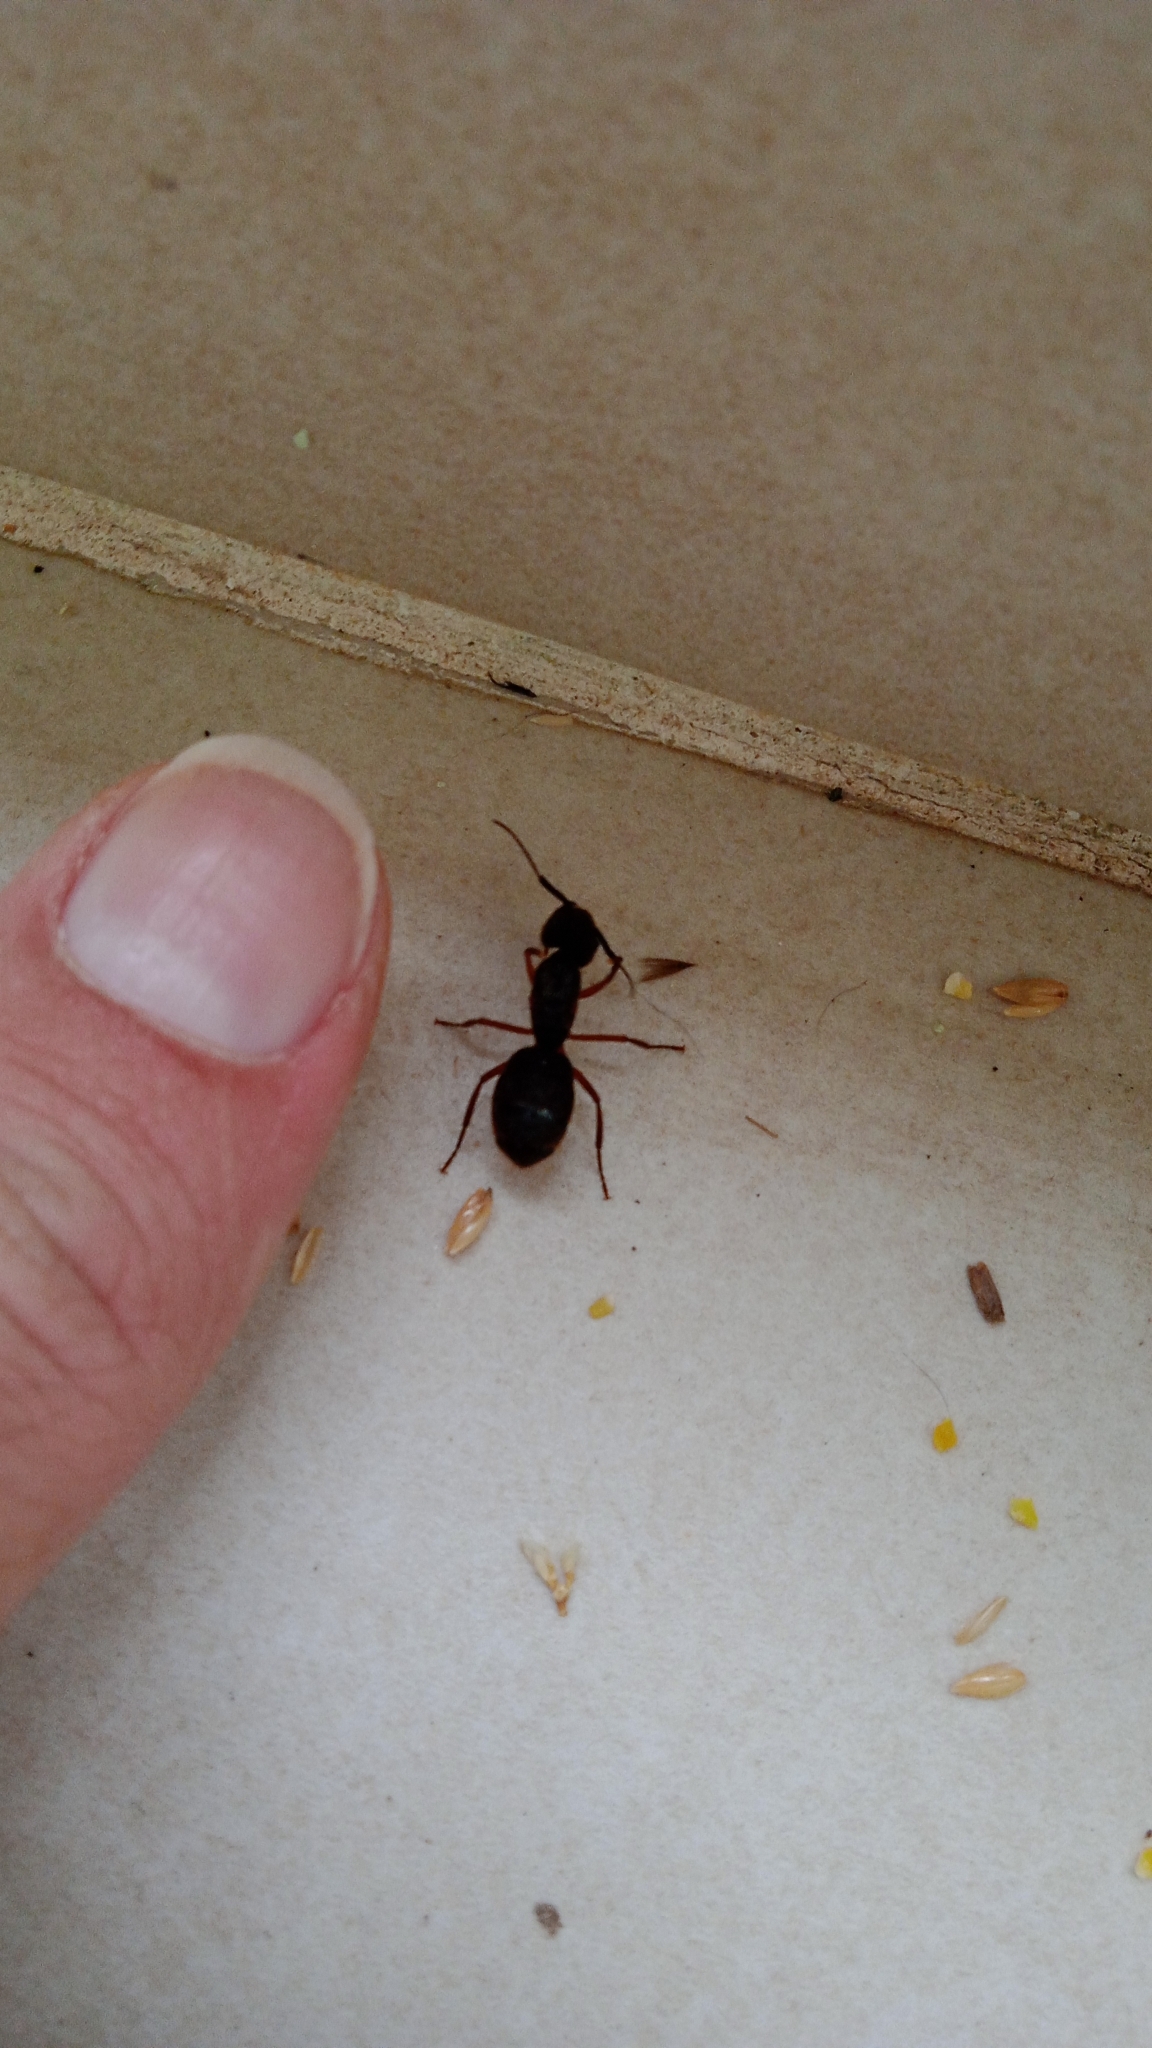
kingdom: Animalia
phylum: Arthropoda
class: Insecta
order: Hymenoptera
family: Formicidae
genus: Camponotus
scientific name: Camponotus rufipes
